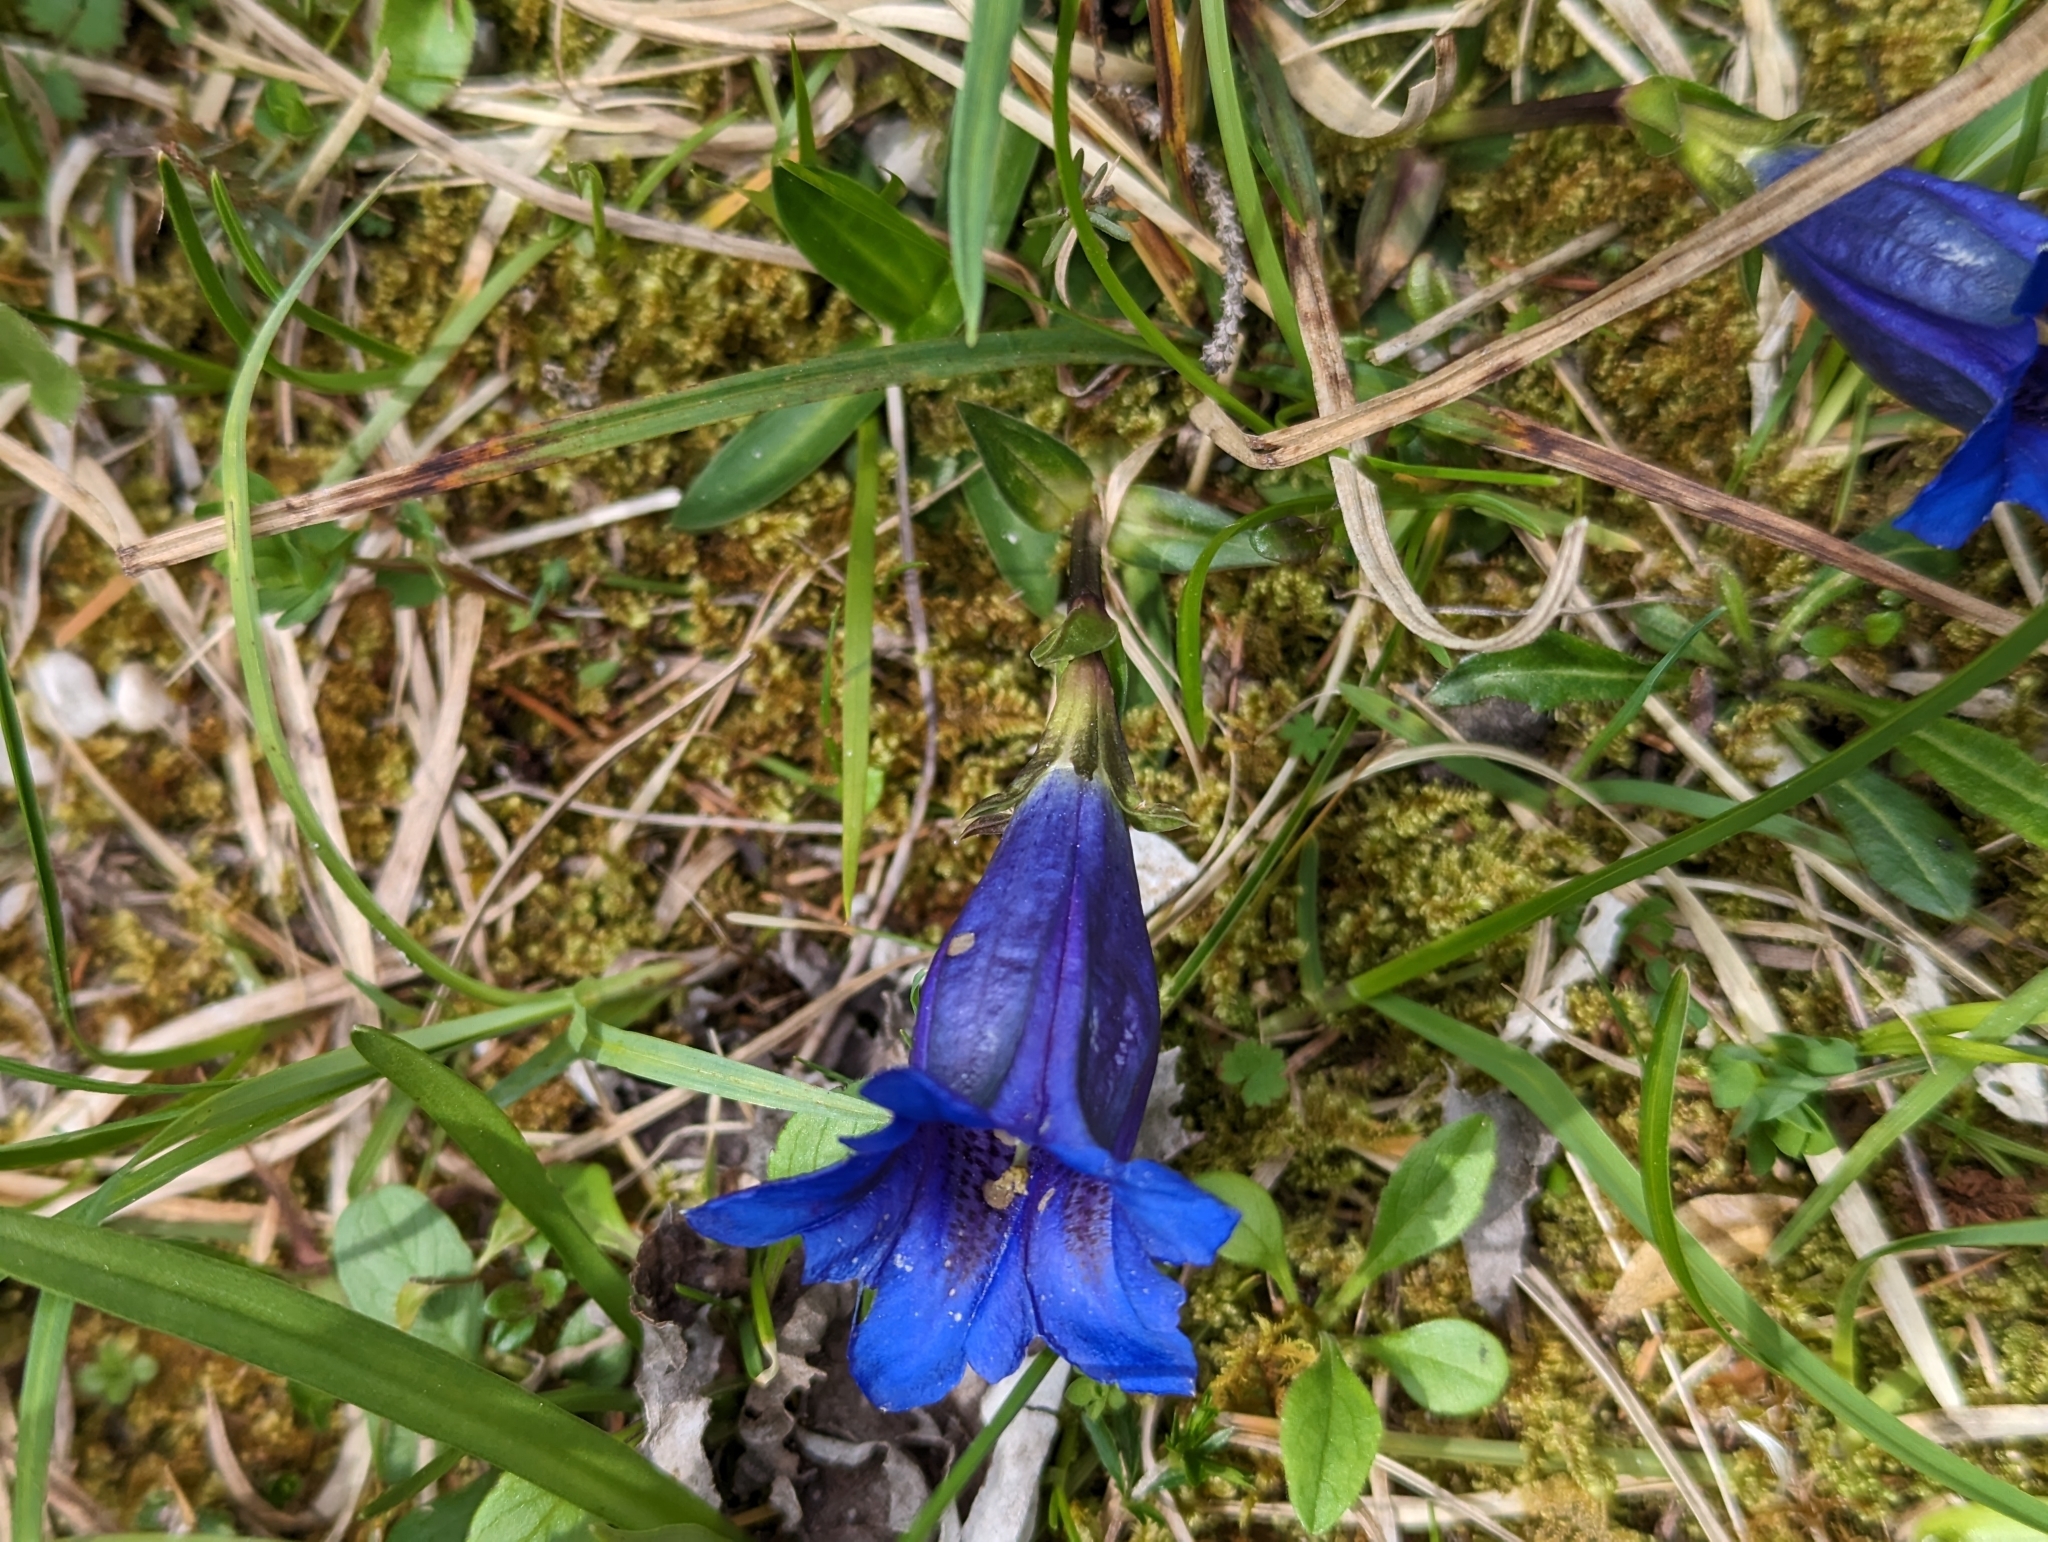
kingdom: Plantae
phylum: Tracheophyta
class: Magnoliopsida
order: Gentianales
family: Gentianaceae
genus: Gentiana
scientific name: Gentiana clusii
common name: Trumpet gentian
